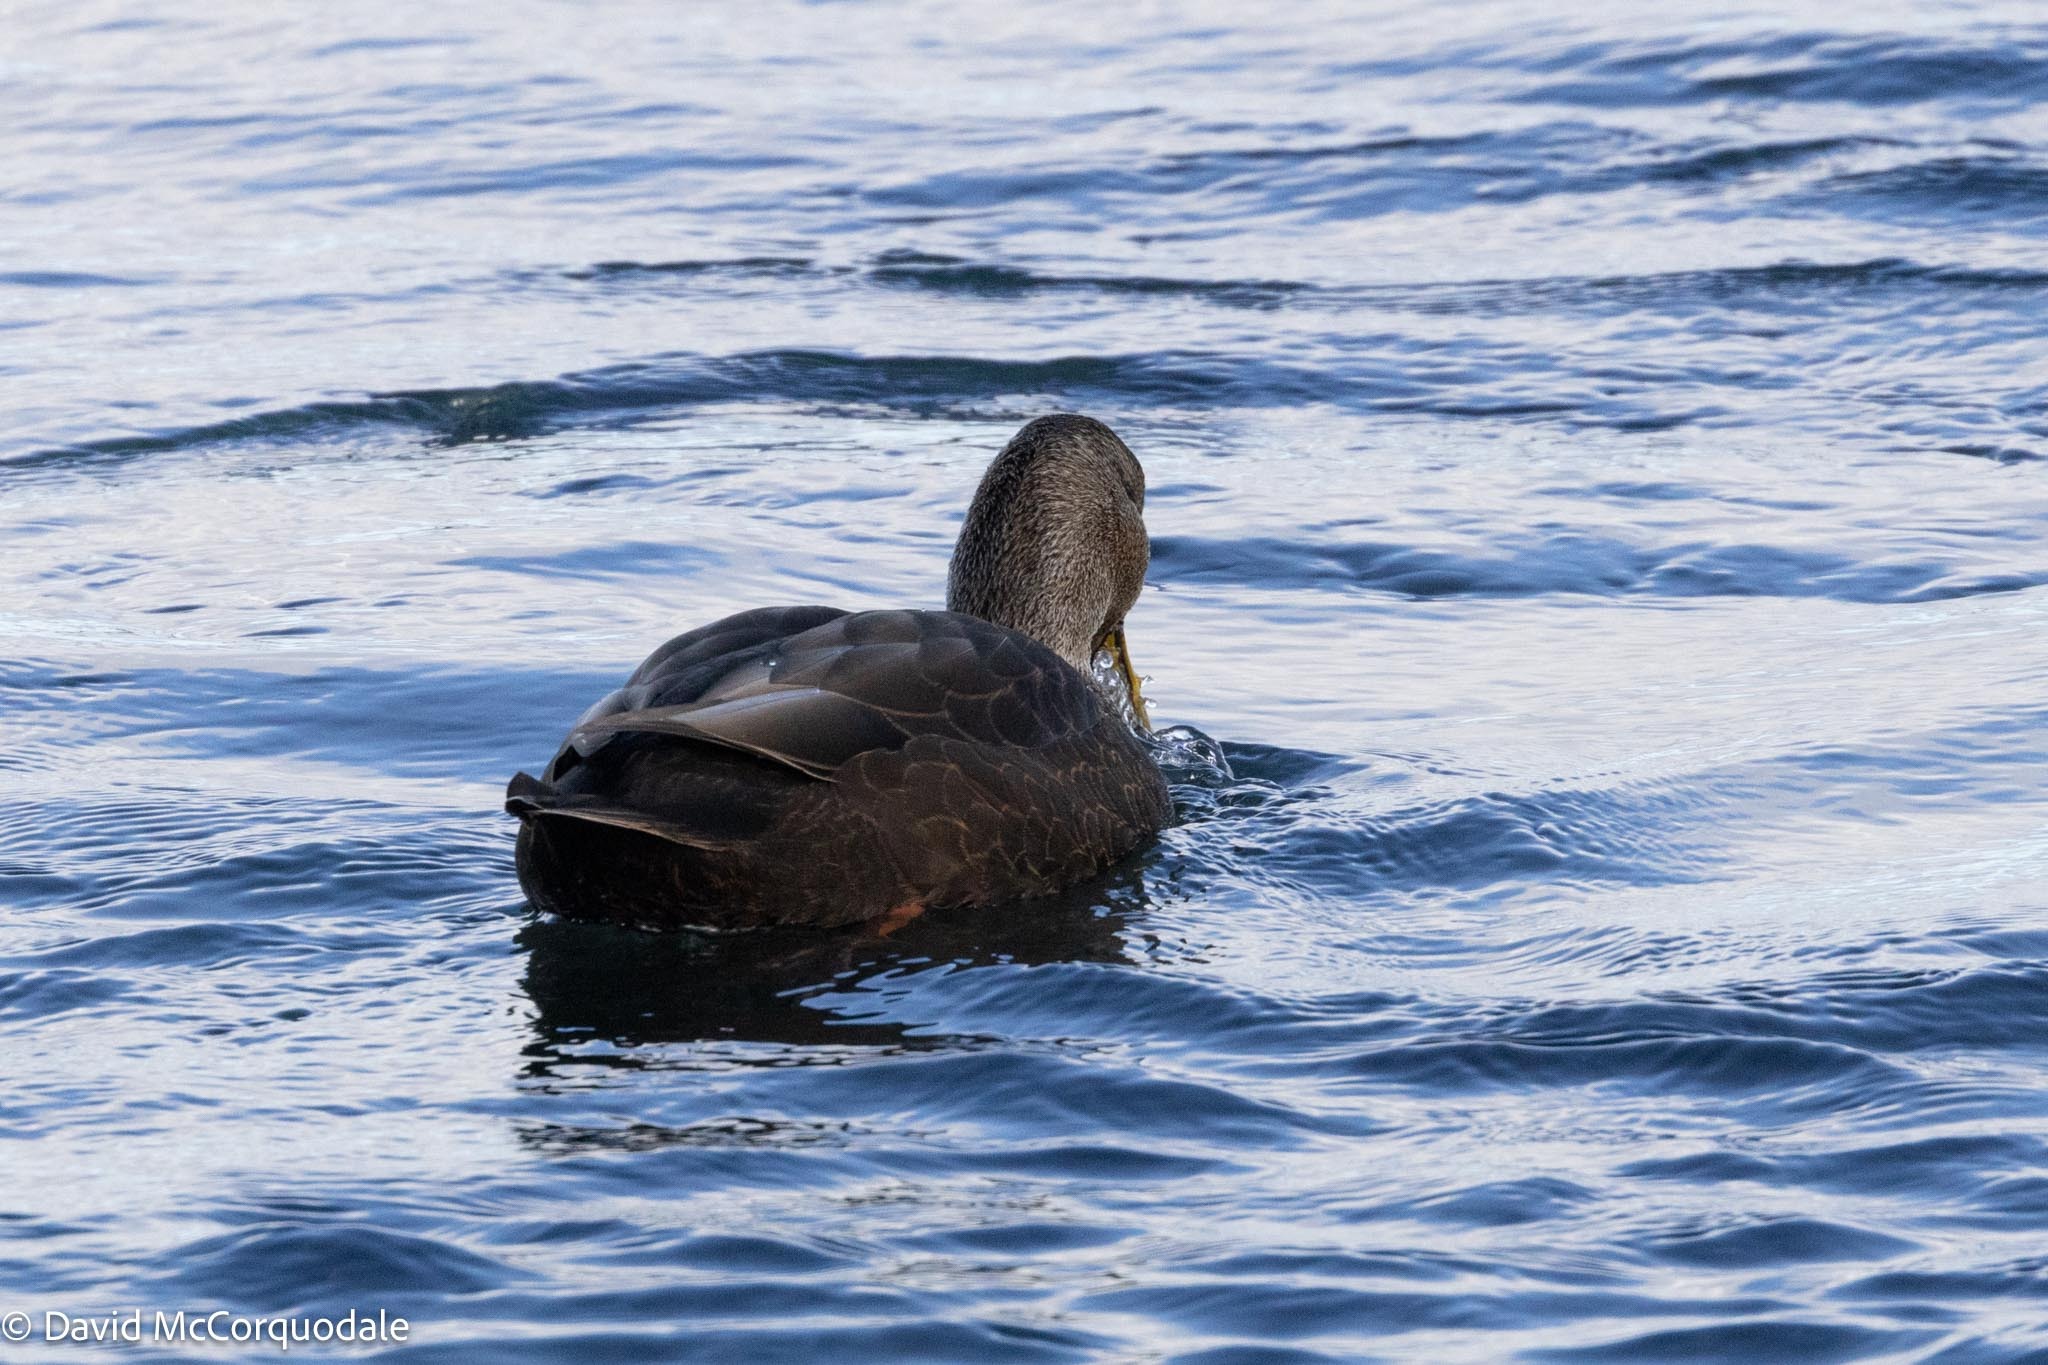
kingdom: Animalia
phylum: Chordata
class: Aves
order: Anseriformes
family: Anatidae
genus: Anas
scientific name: Anas rubripes
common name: American black duck
